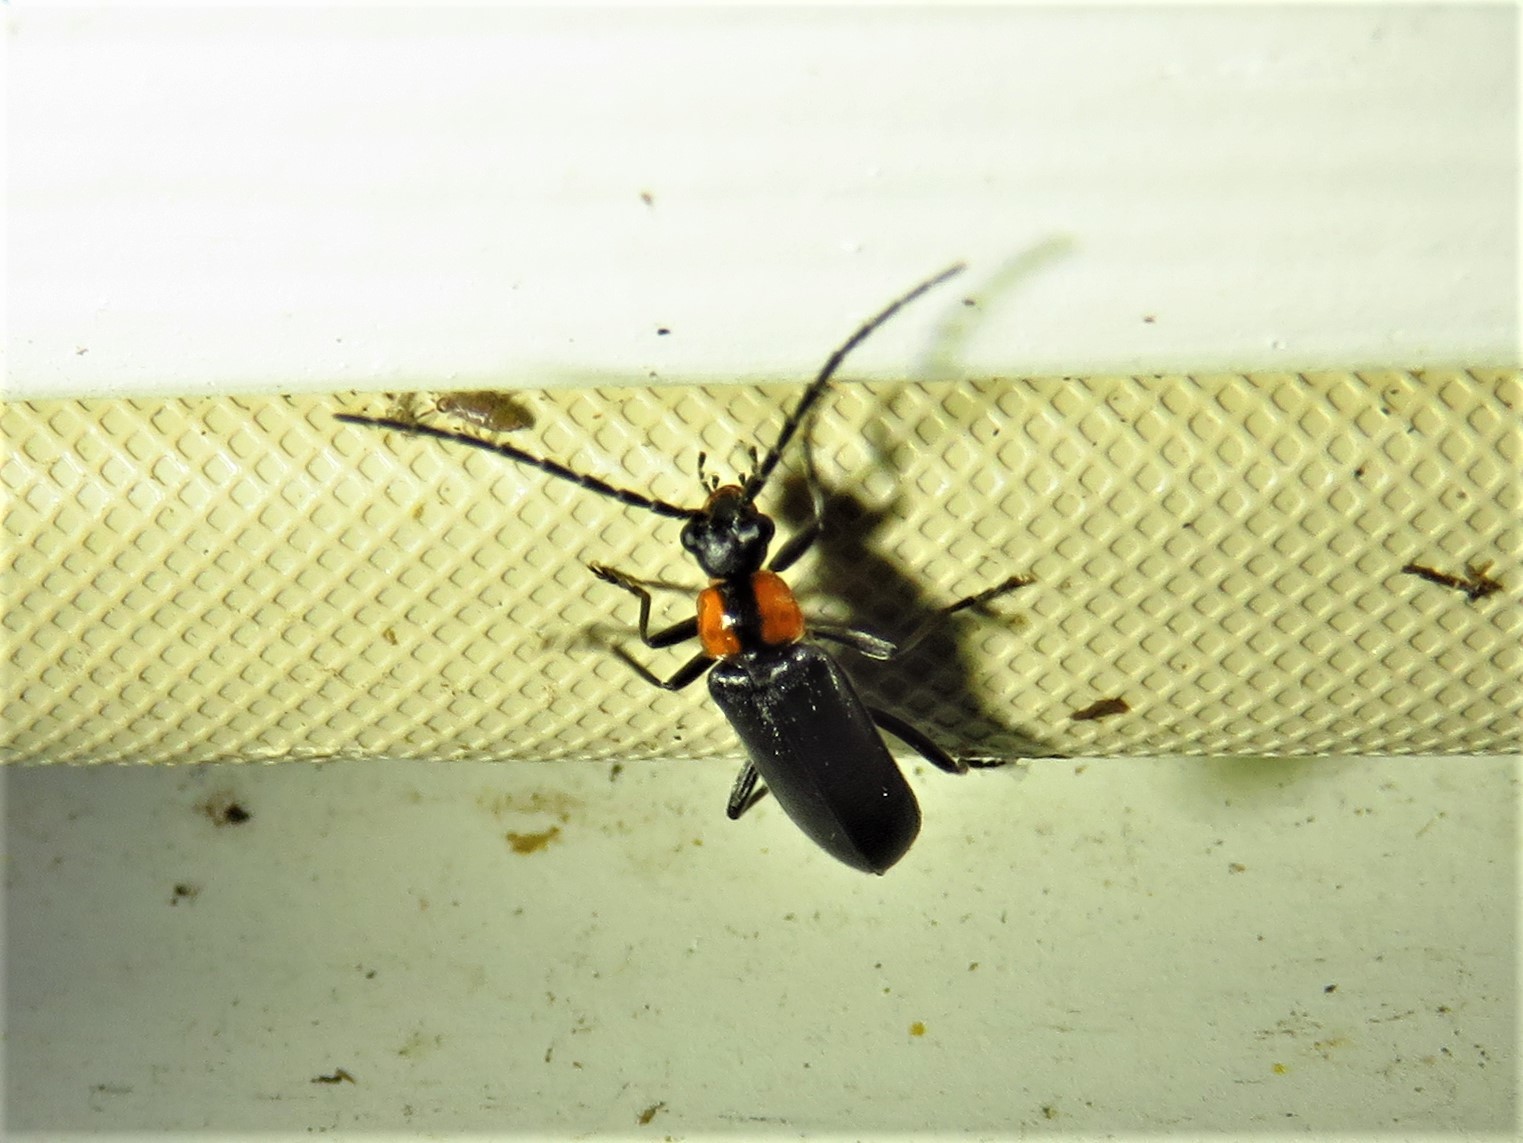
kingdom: Animalia
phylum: Arthropoda
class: Insecta
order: Coleoptera
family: Cantharidae
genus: Rhagonycha
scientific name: Rhagonycha lineola
